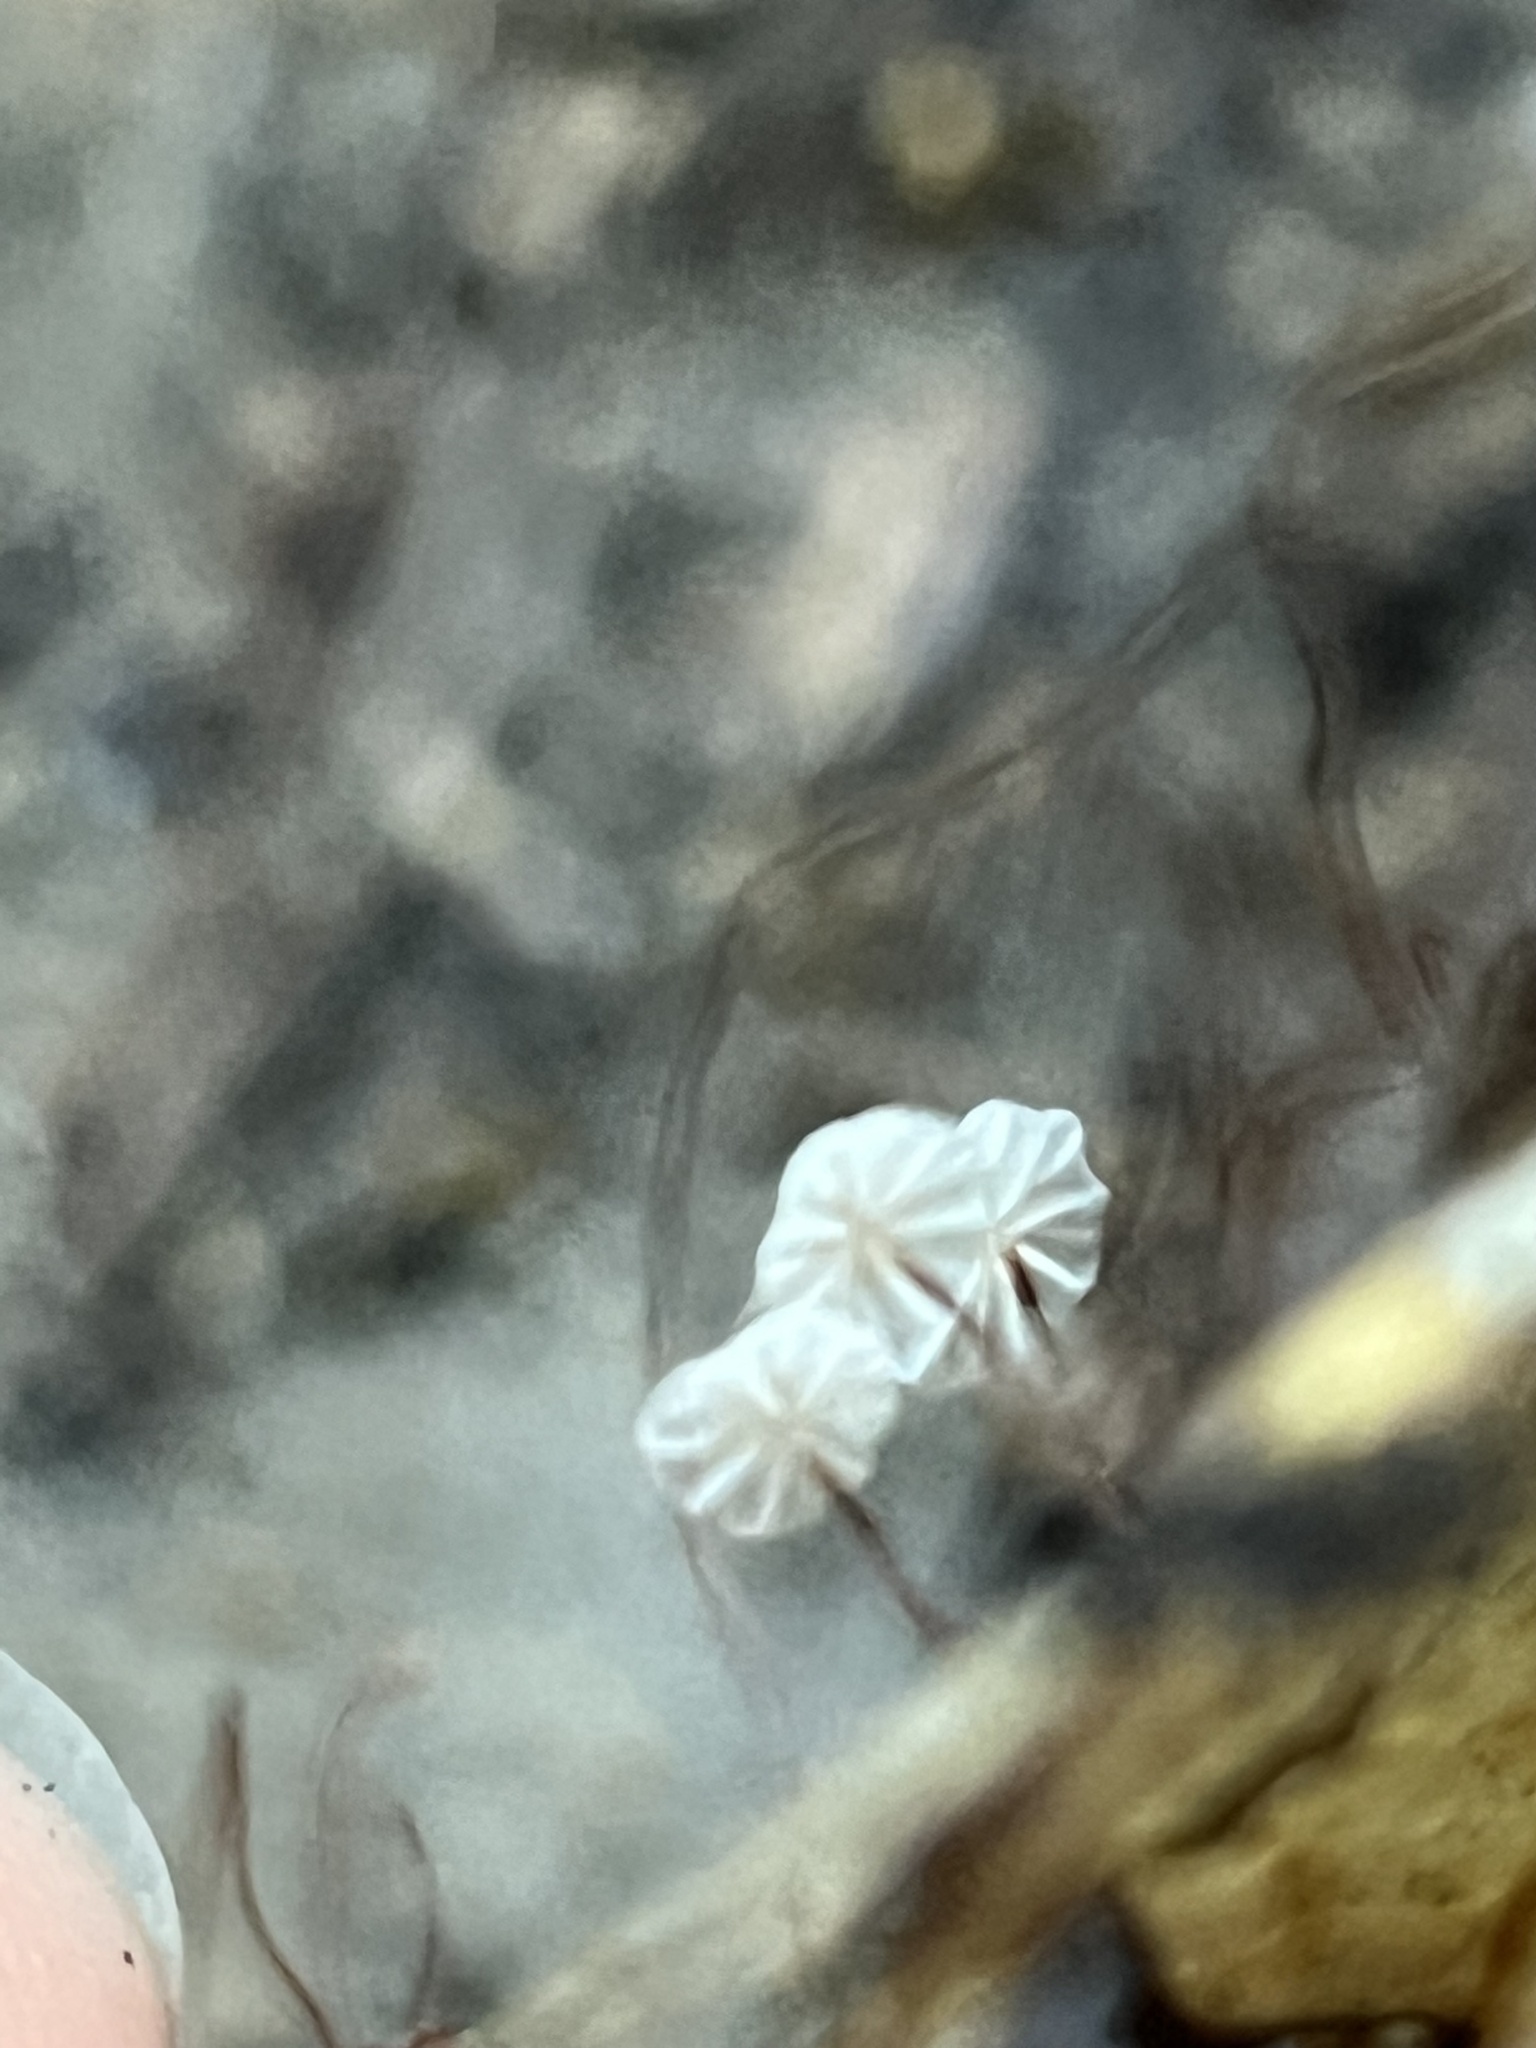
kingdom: Fungi
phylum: Basidiomycota
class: Agaricomycetes
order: Agaricales
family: Omphalotaceae
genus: Collybiopsis
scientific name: Collybiopsis quercophila
